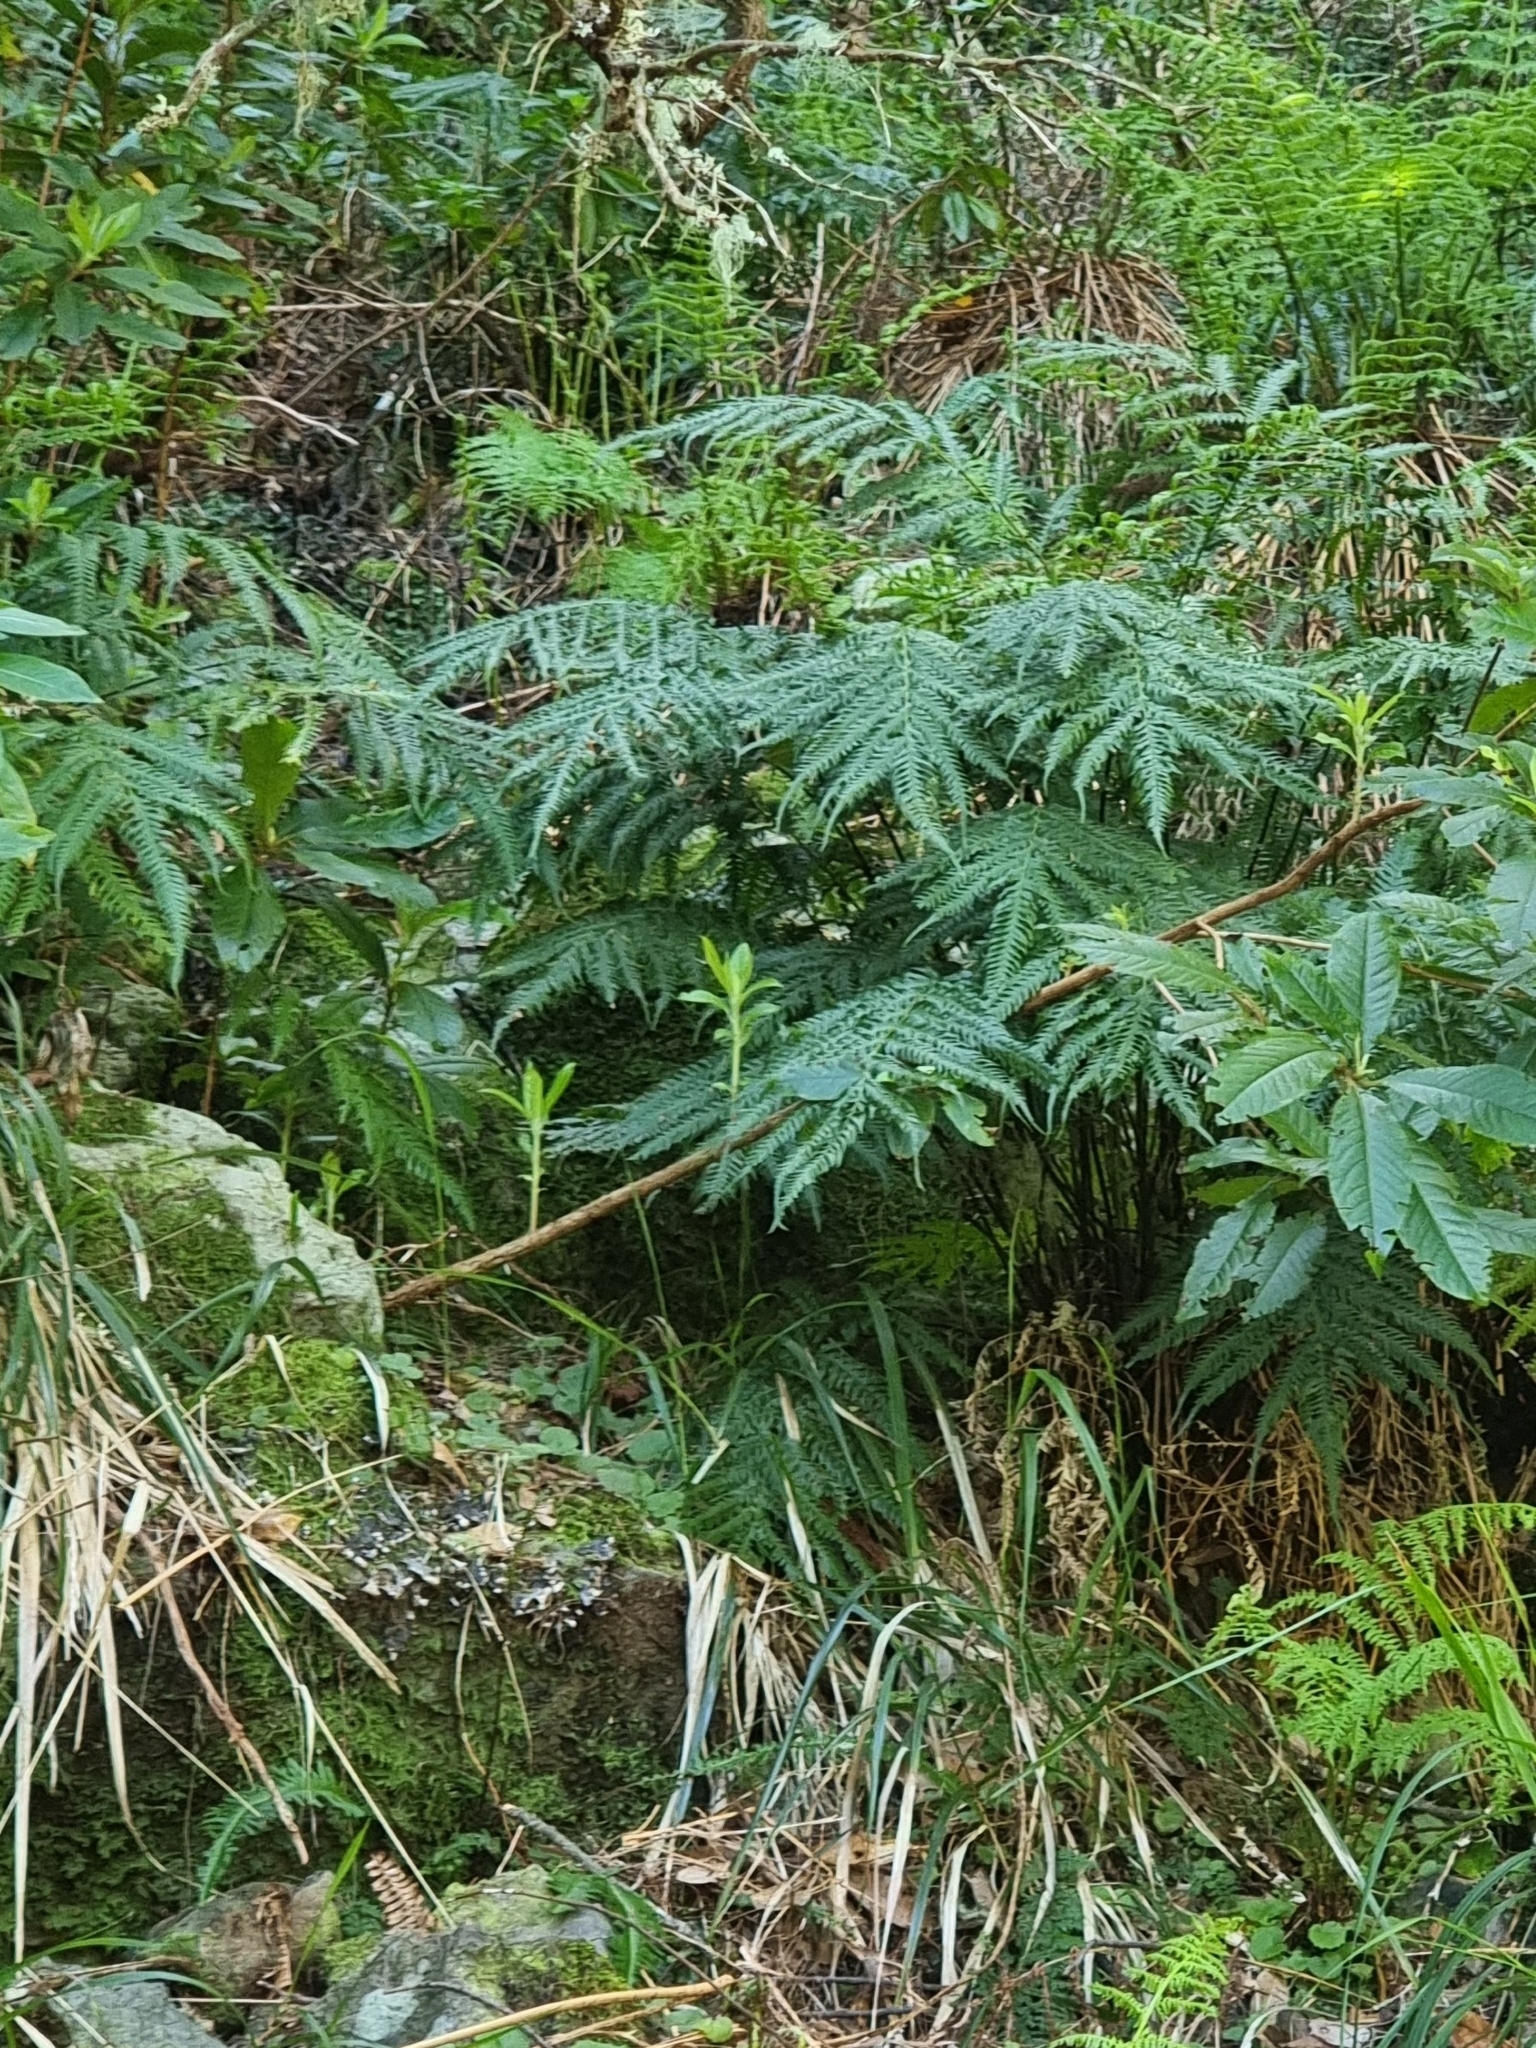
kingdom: Plantae
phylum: Tracheophyta
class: Polypodiopsida
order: Polypodiales
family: Blechnaceae
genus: Woodwardia
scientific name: Woodwardia radicans
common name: Rooting chainfern
